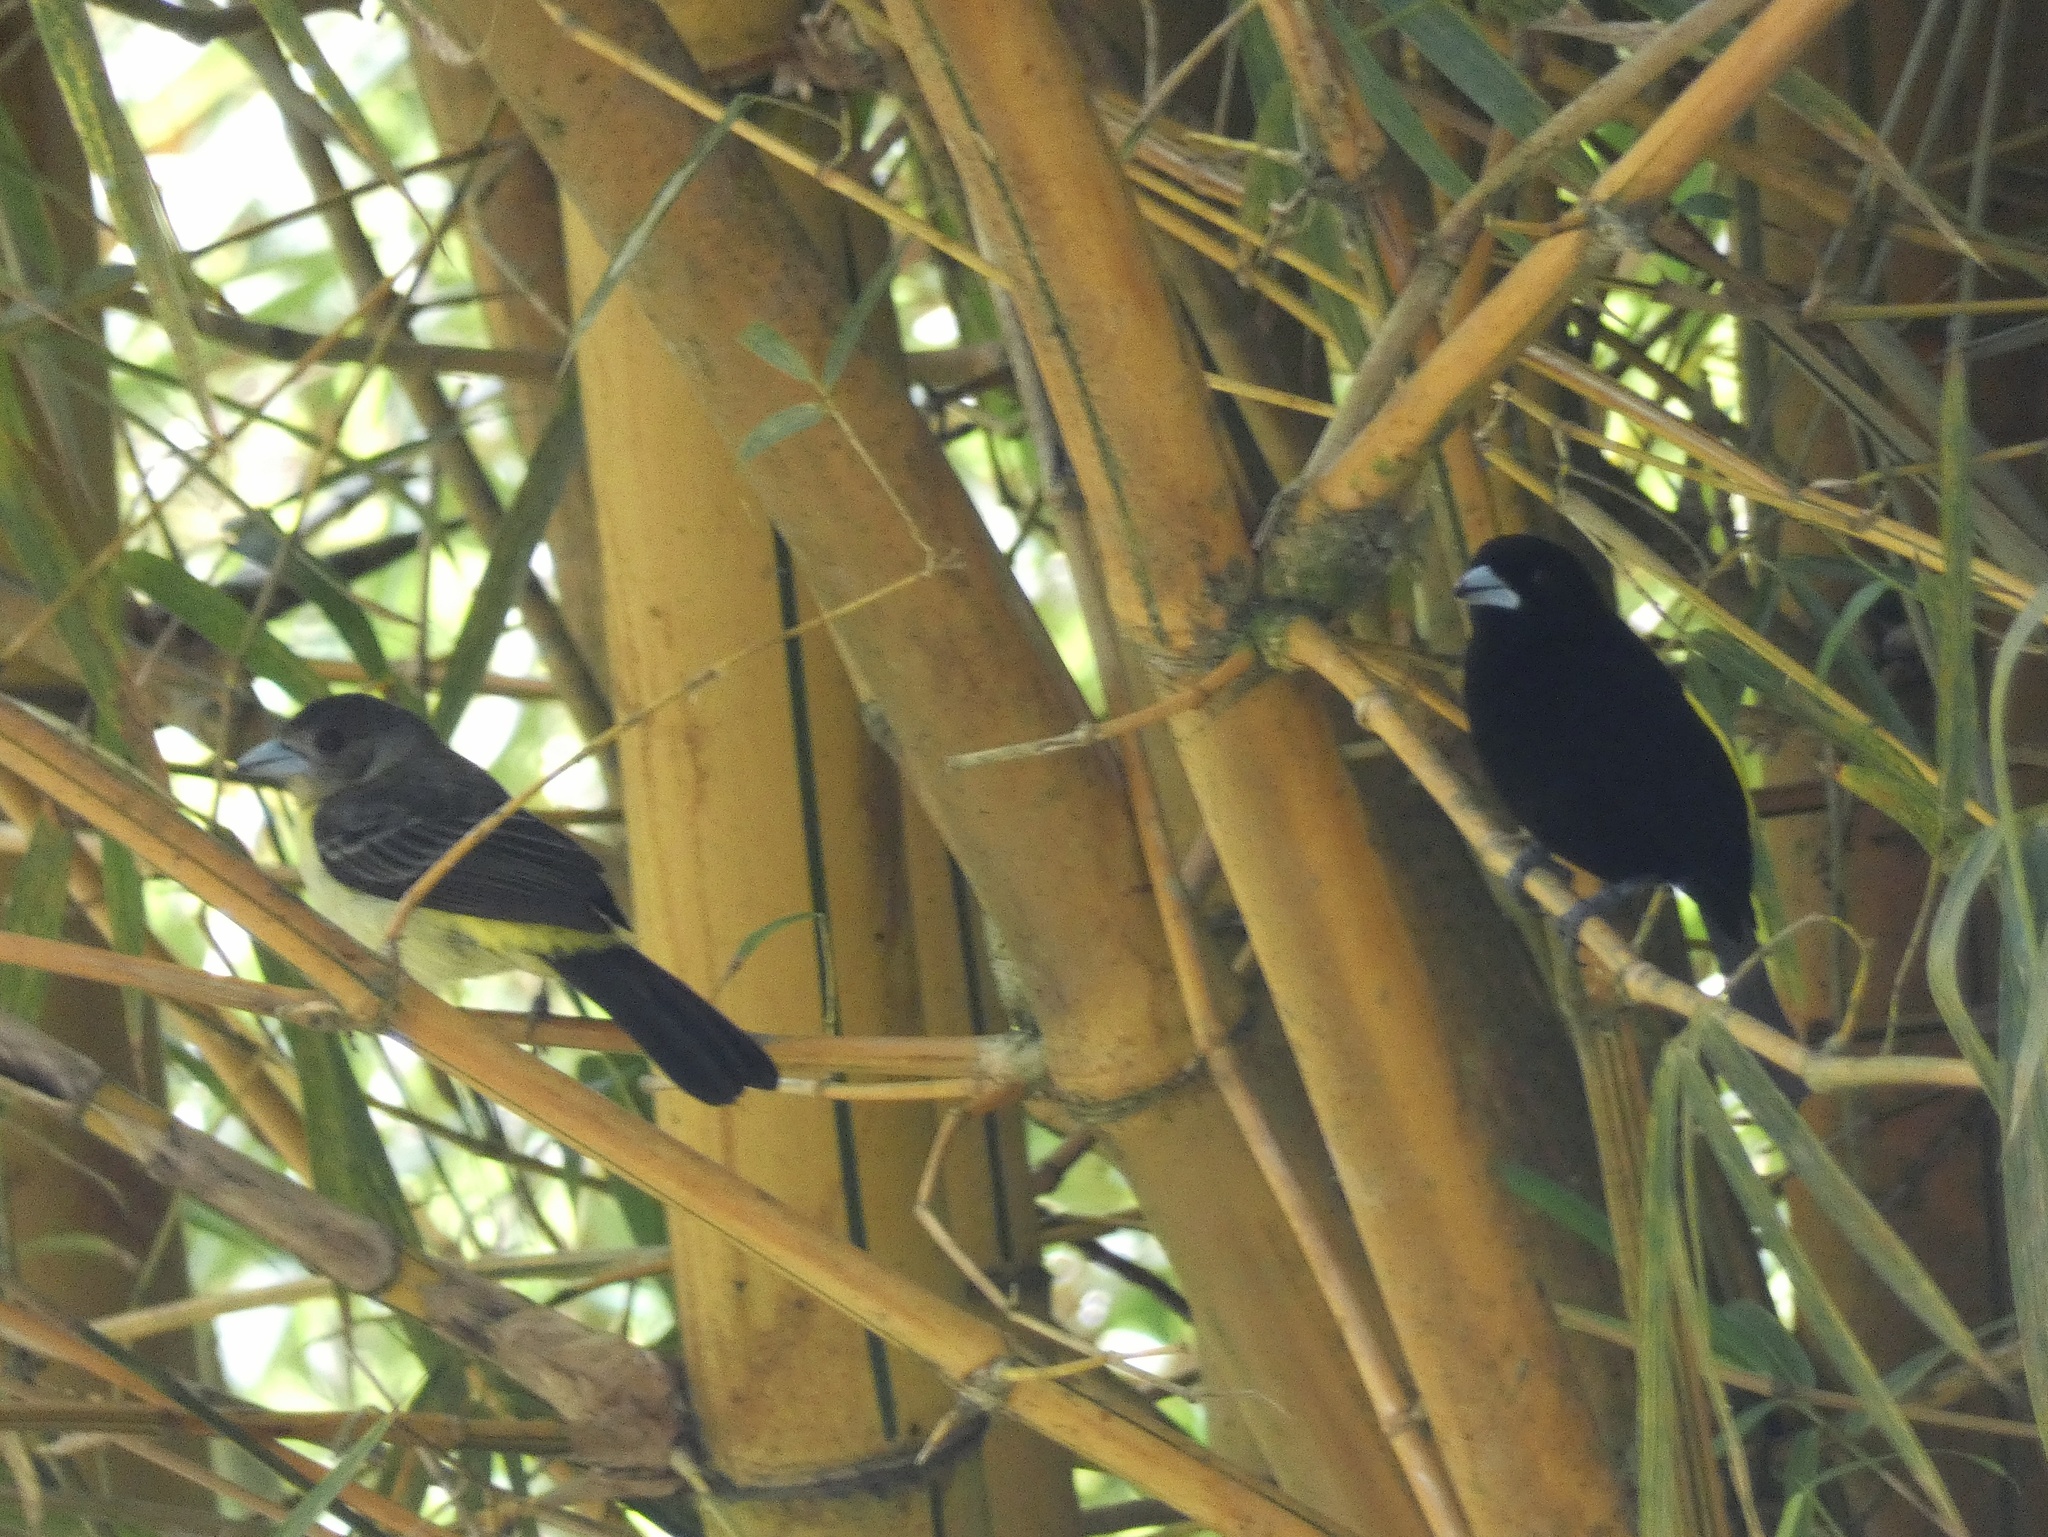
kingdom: Animalia
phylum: Chordata
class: Aves
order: Passeriformes
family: Thraupidae
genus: Ramphocelus
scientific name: Ramphocelus icteronotus
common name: Lemon-rumped tanager
